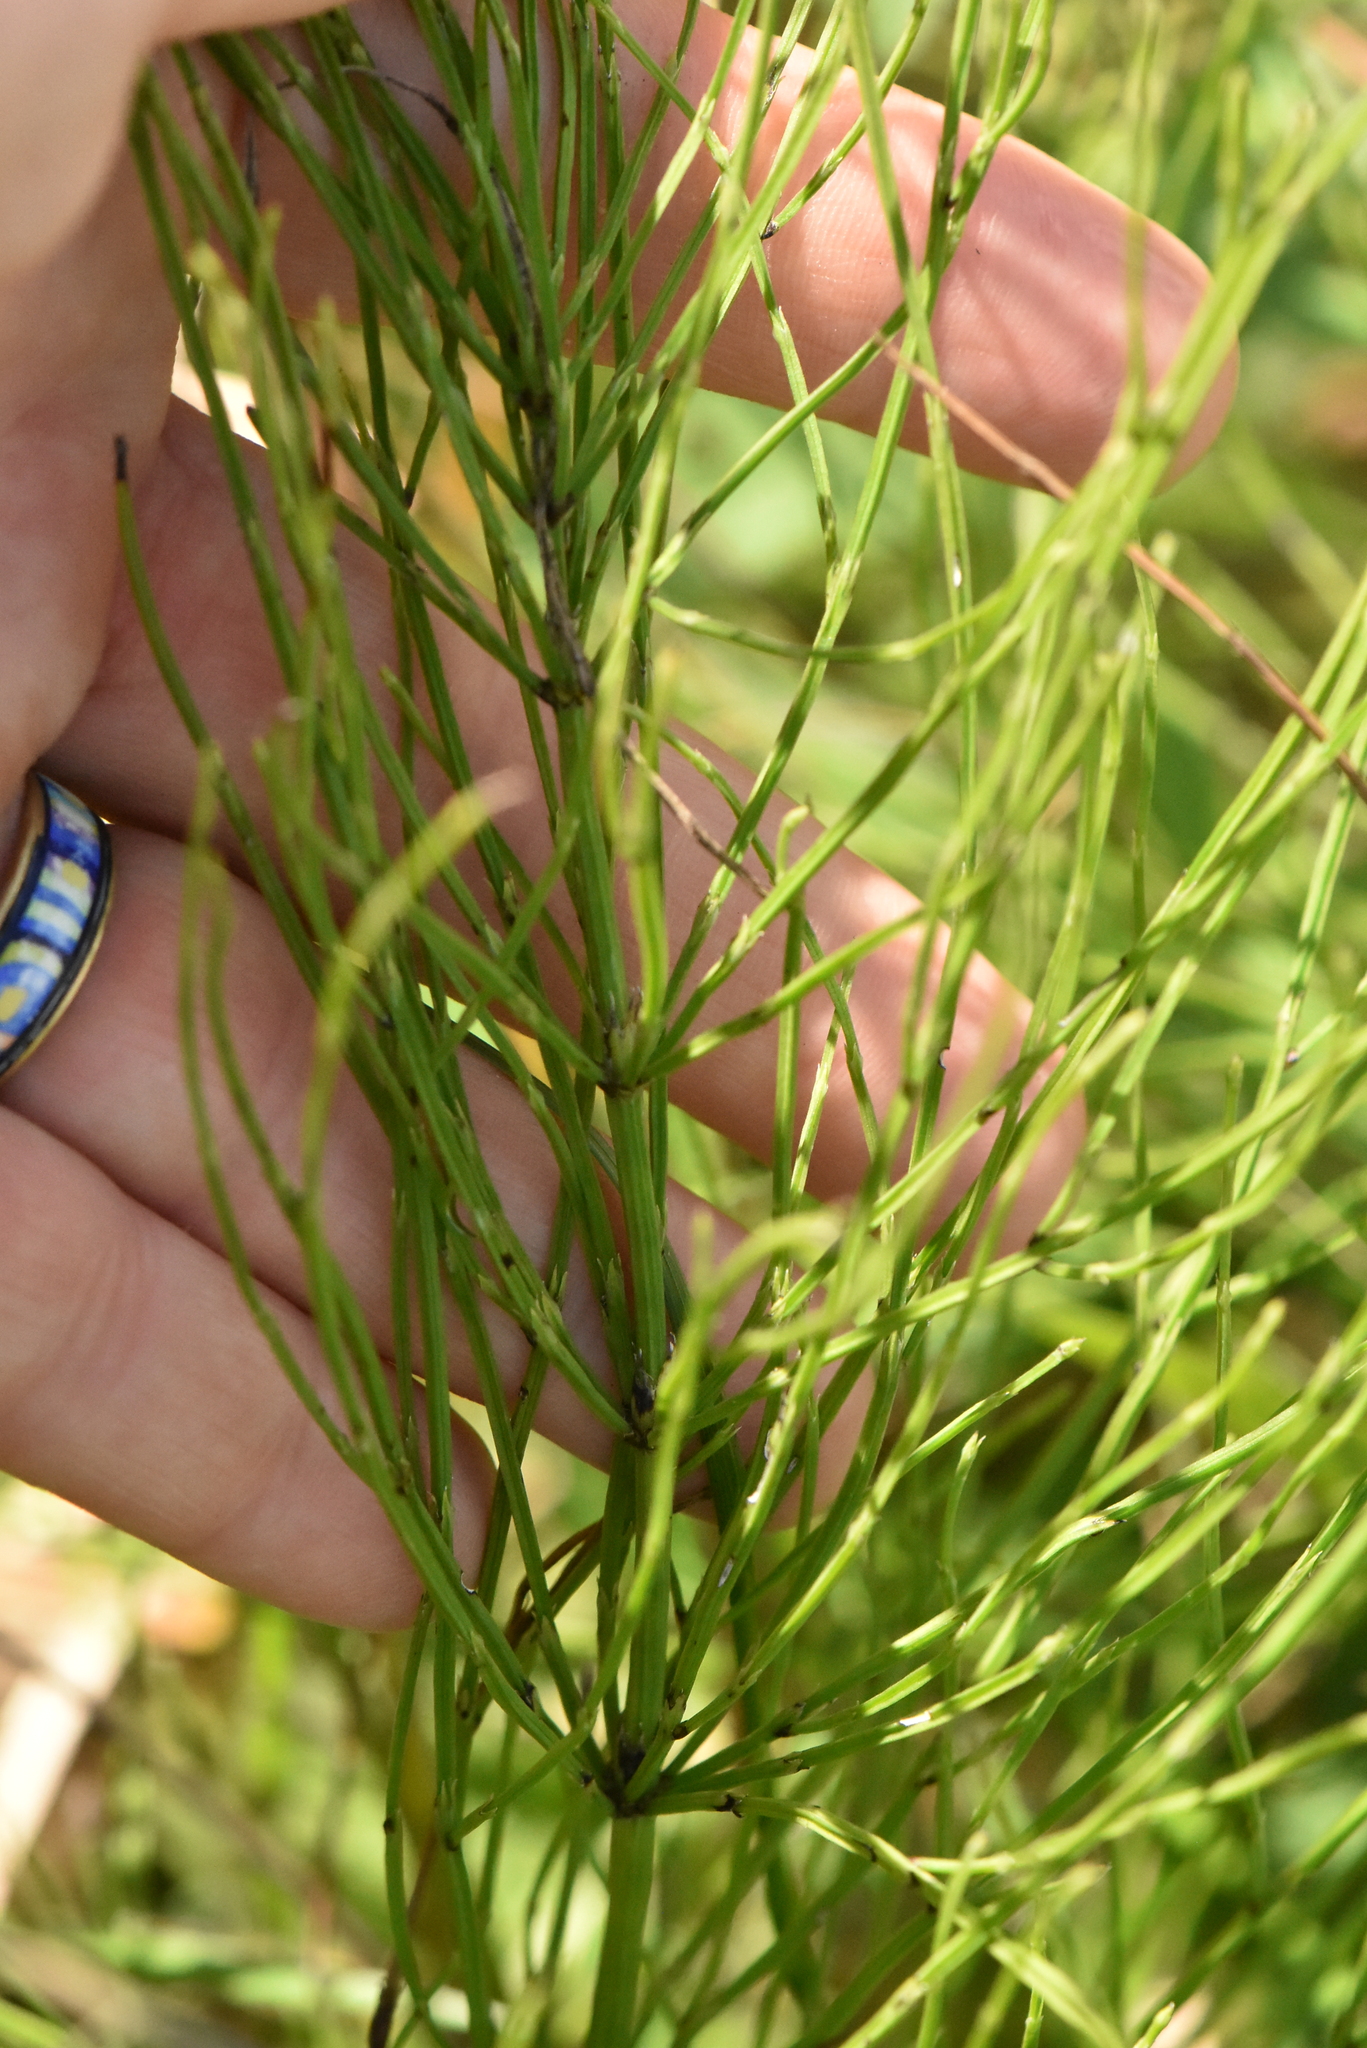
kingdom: Plantae
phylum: Tracheophyta
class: Polypodiopsida
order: Equisetales
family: Equisetaceae
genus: Equisetum
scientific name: Equisetum arvense
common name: Field horsetail
